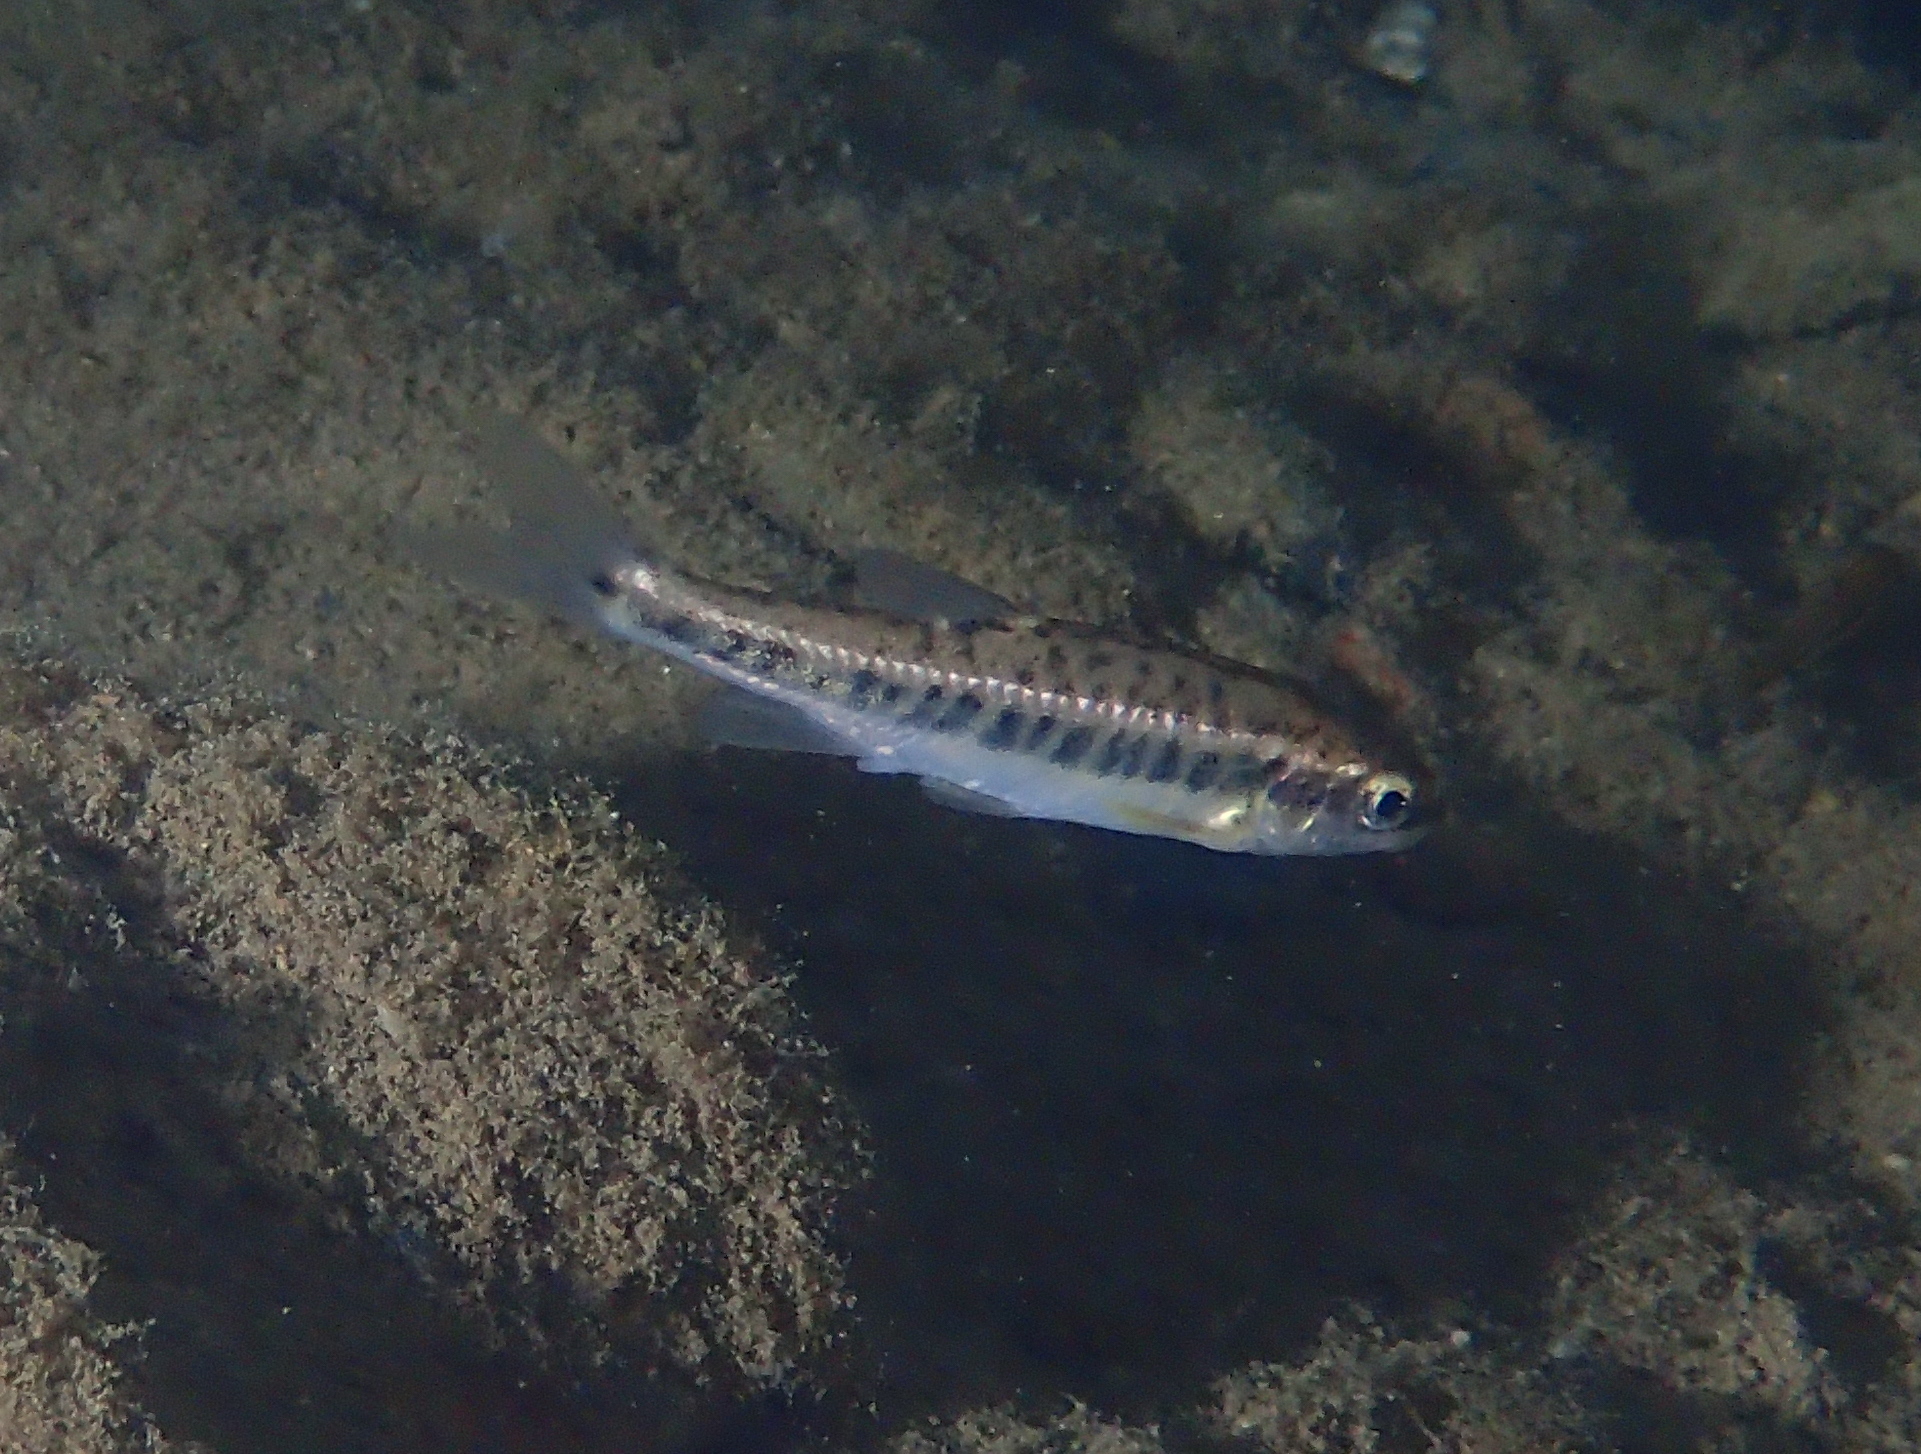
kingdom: Animalia
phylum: Chordata
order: Cypriniformes
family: Cyprinidae
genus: Phoxinus
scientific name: Phoxinus bigerri
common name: Adour minnow
